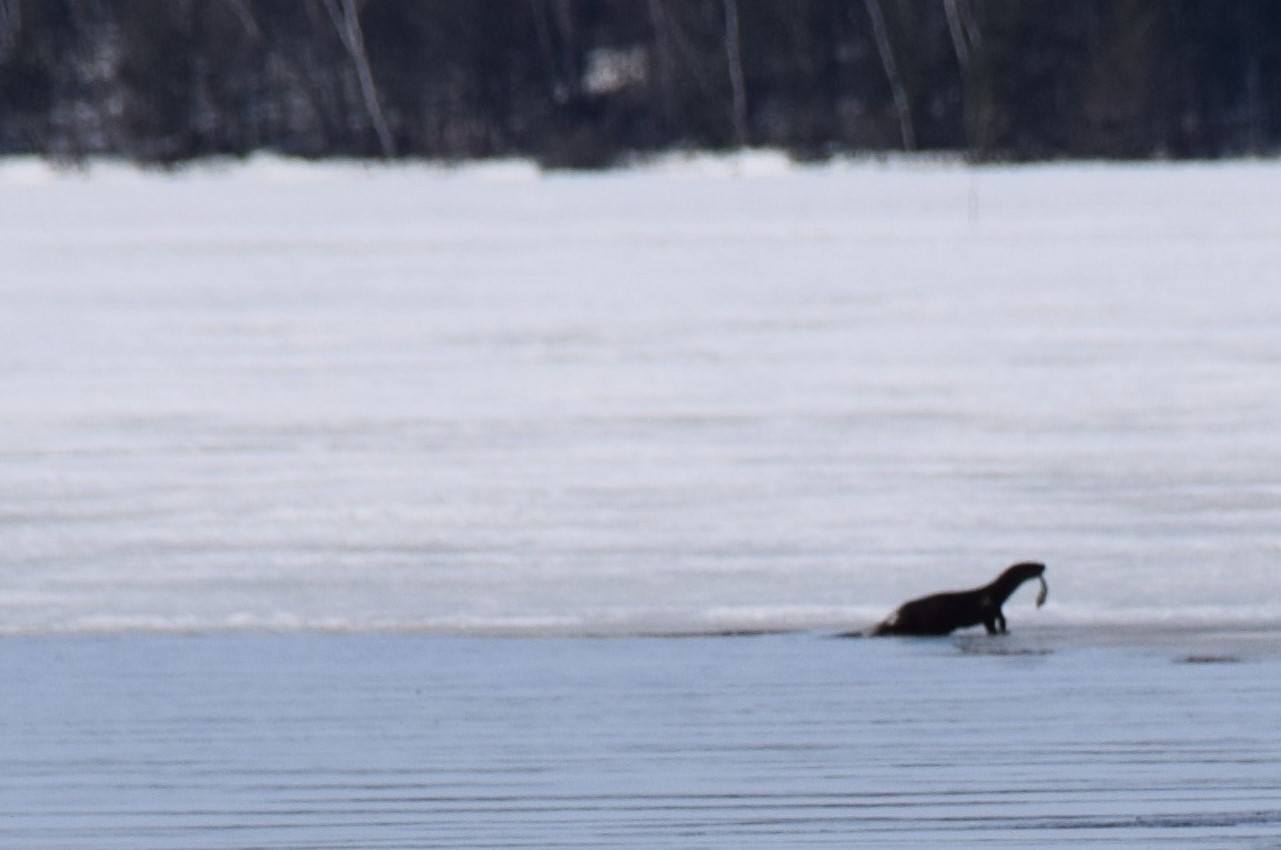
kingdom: Animalia
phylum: Chordata
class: Mammalia
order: Carnivora
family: Mustelidae
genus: Lontra
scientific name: Lontra canadensis
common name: North american river otter
